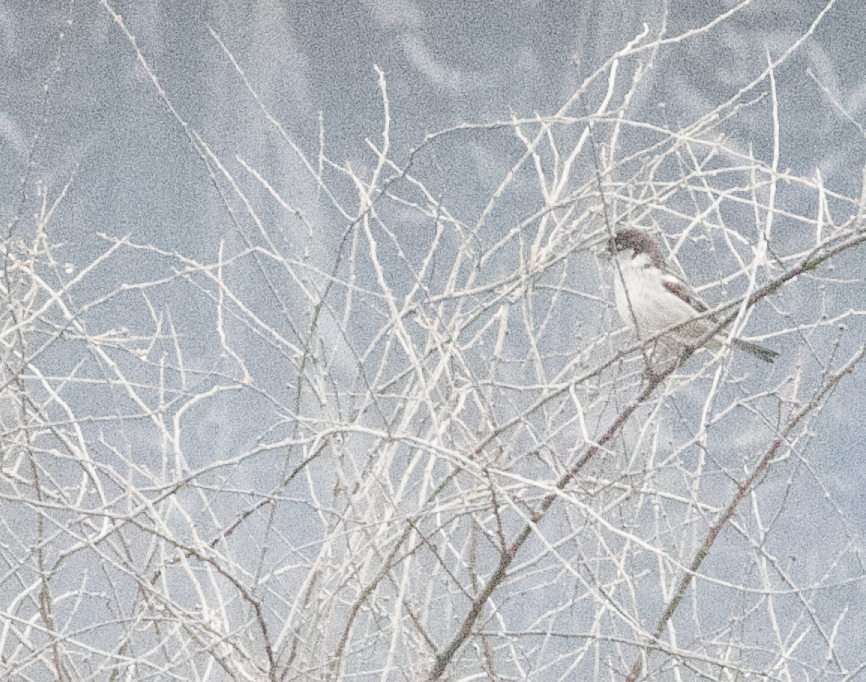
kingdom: Animalia
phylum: Chordata
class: Aves
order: Passeriformes
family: Passeridae
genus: Passer
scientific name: Passer italiae
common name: Italian sparrow
